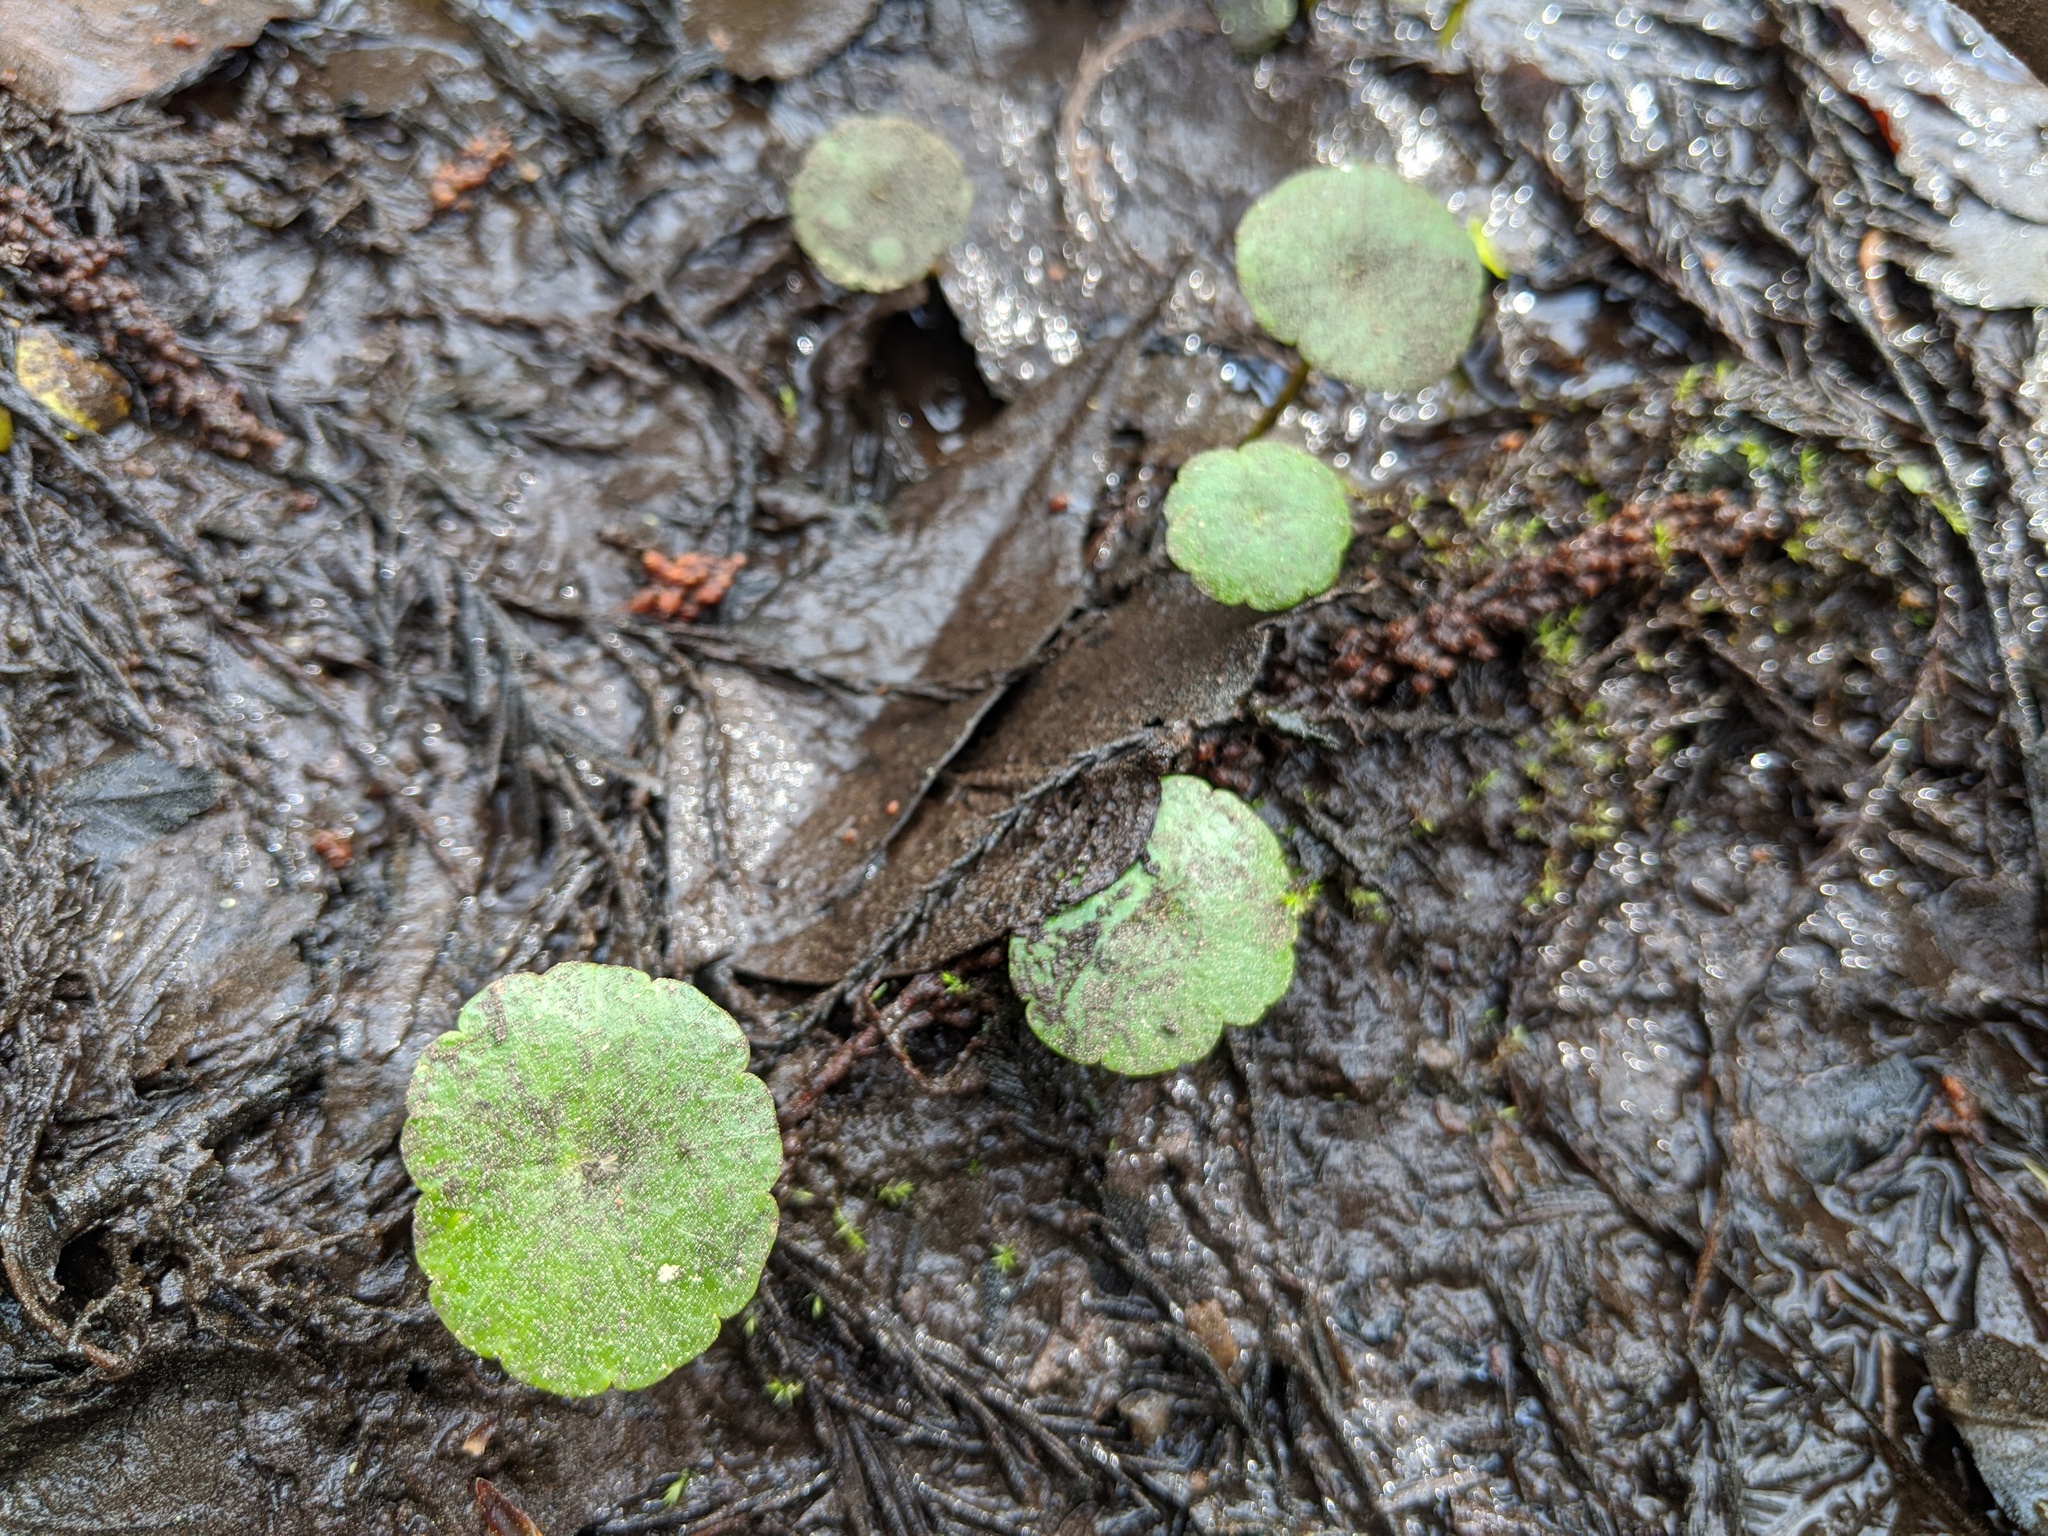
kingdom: Plantae
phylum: Tracheophyta
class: Magnoliopsida
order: Apiales
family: Araliaceae
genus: Hydrocotyle
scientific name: Hydrocotyle
